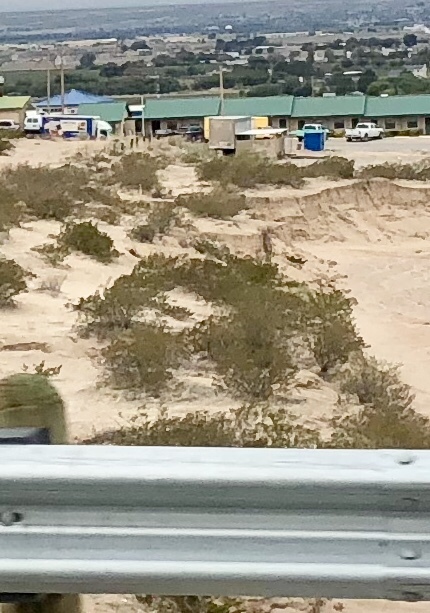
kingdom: Plantae
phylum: Tracheophyta
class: Magnoliopsida
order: Zygophyllales
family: Zygophyllaceae
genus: Larrea
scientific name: Larrea tridentata
